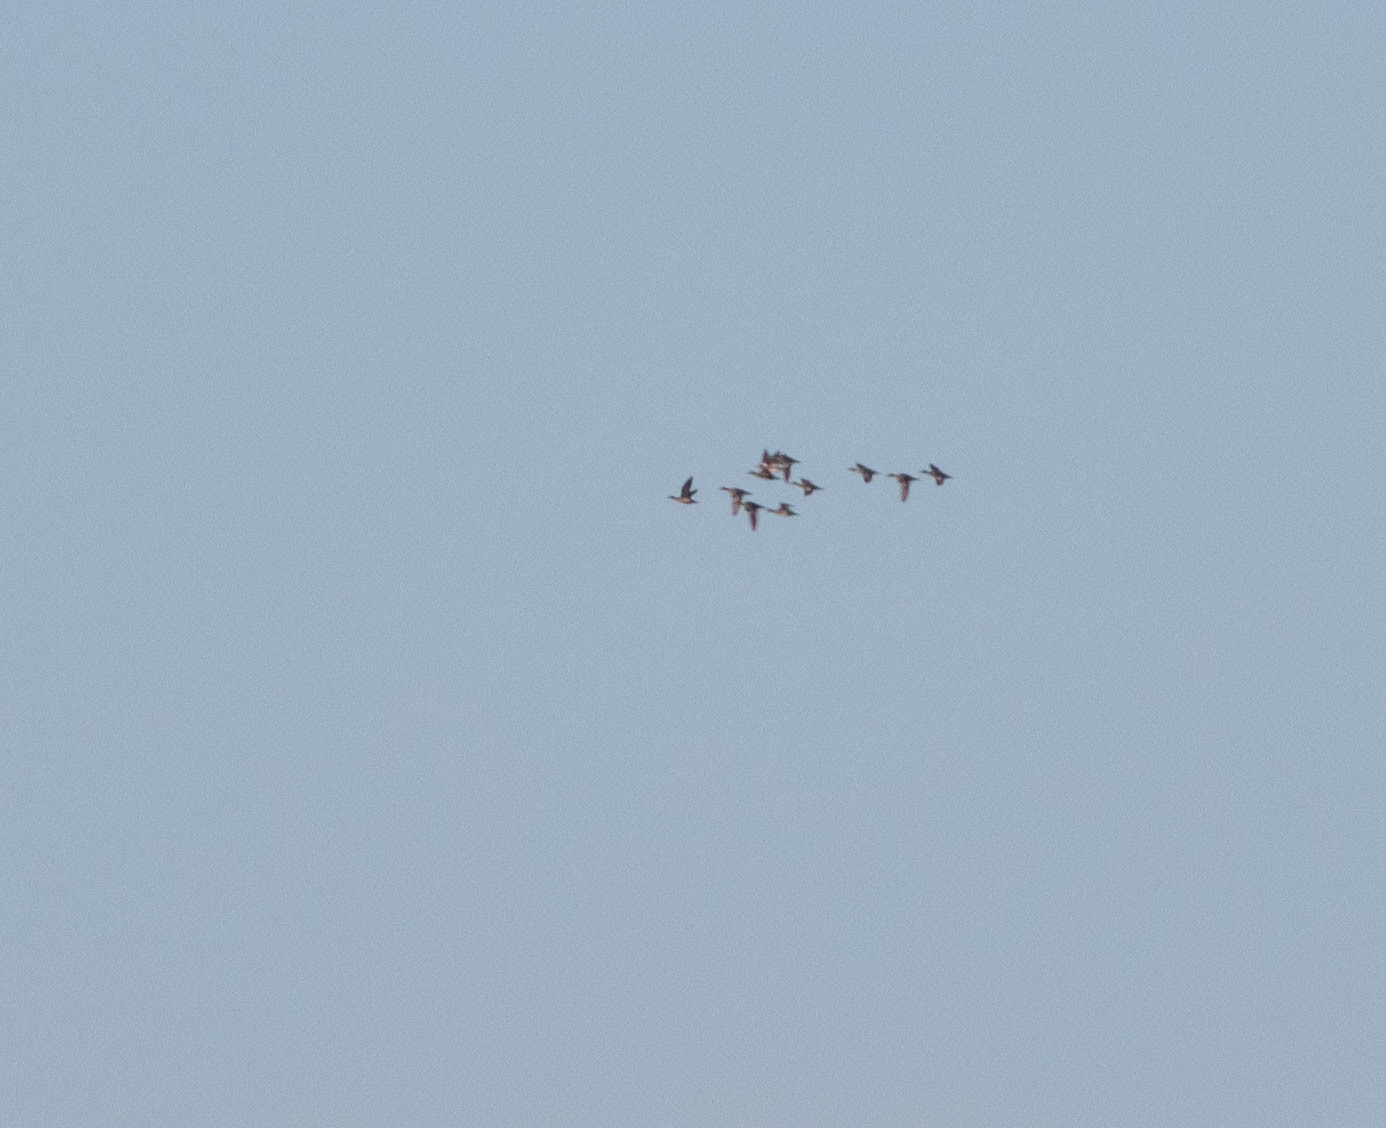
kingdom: Animalia
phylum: Chordata
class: Aves
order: Anseriformes
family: Anatidae
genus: Mareca
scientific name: Mareca americana
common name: American wigeon
